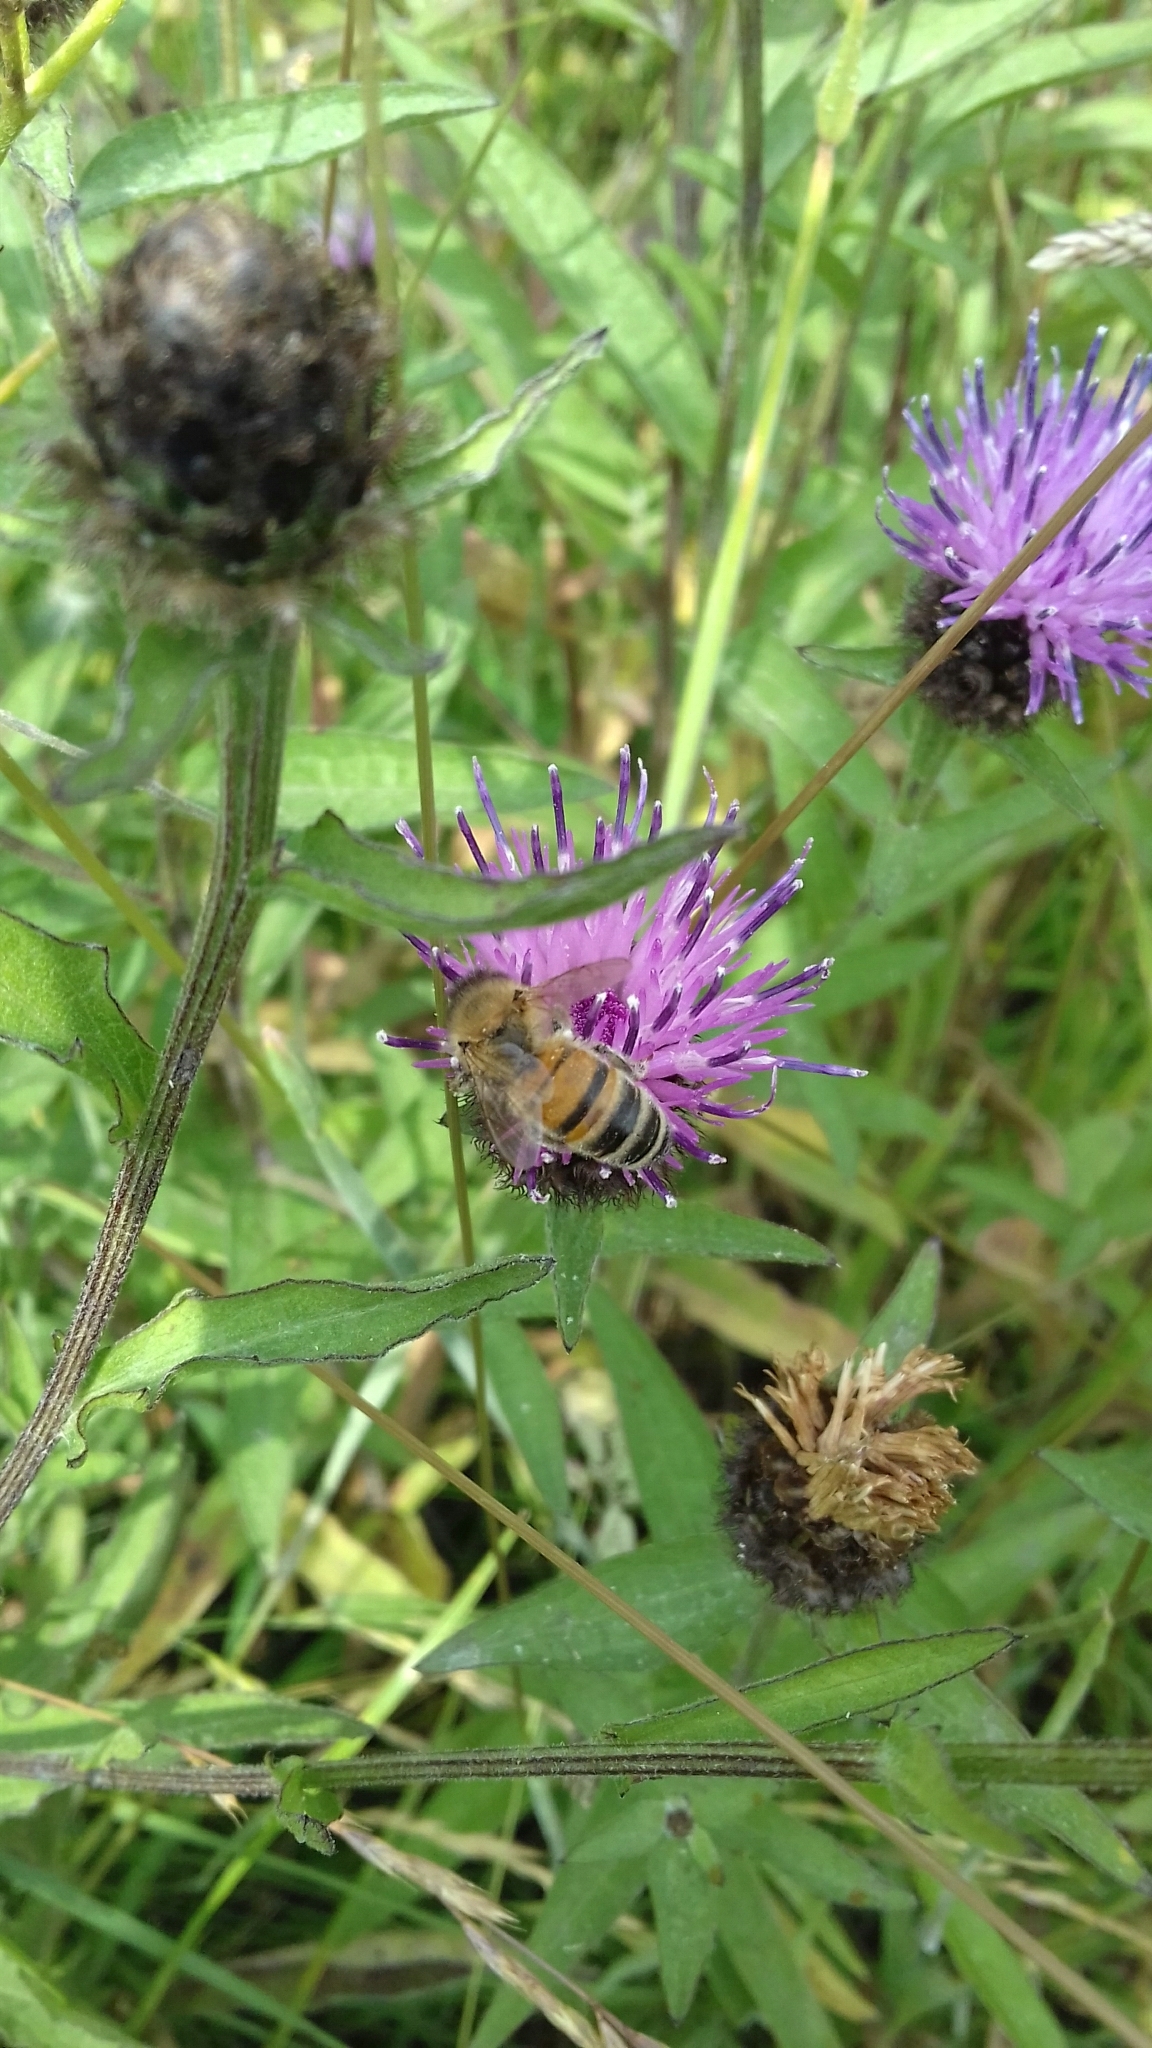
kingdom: Animalia
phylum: Arthropoda
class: Insecta
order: Hymenoptera
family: Apidae
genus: Apis
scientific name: Apis mellifera
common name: Honey bee
